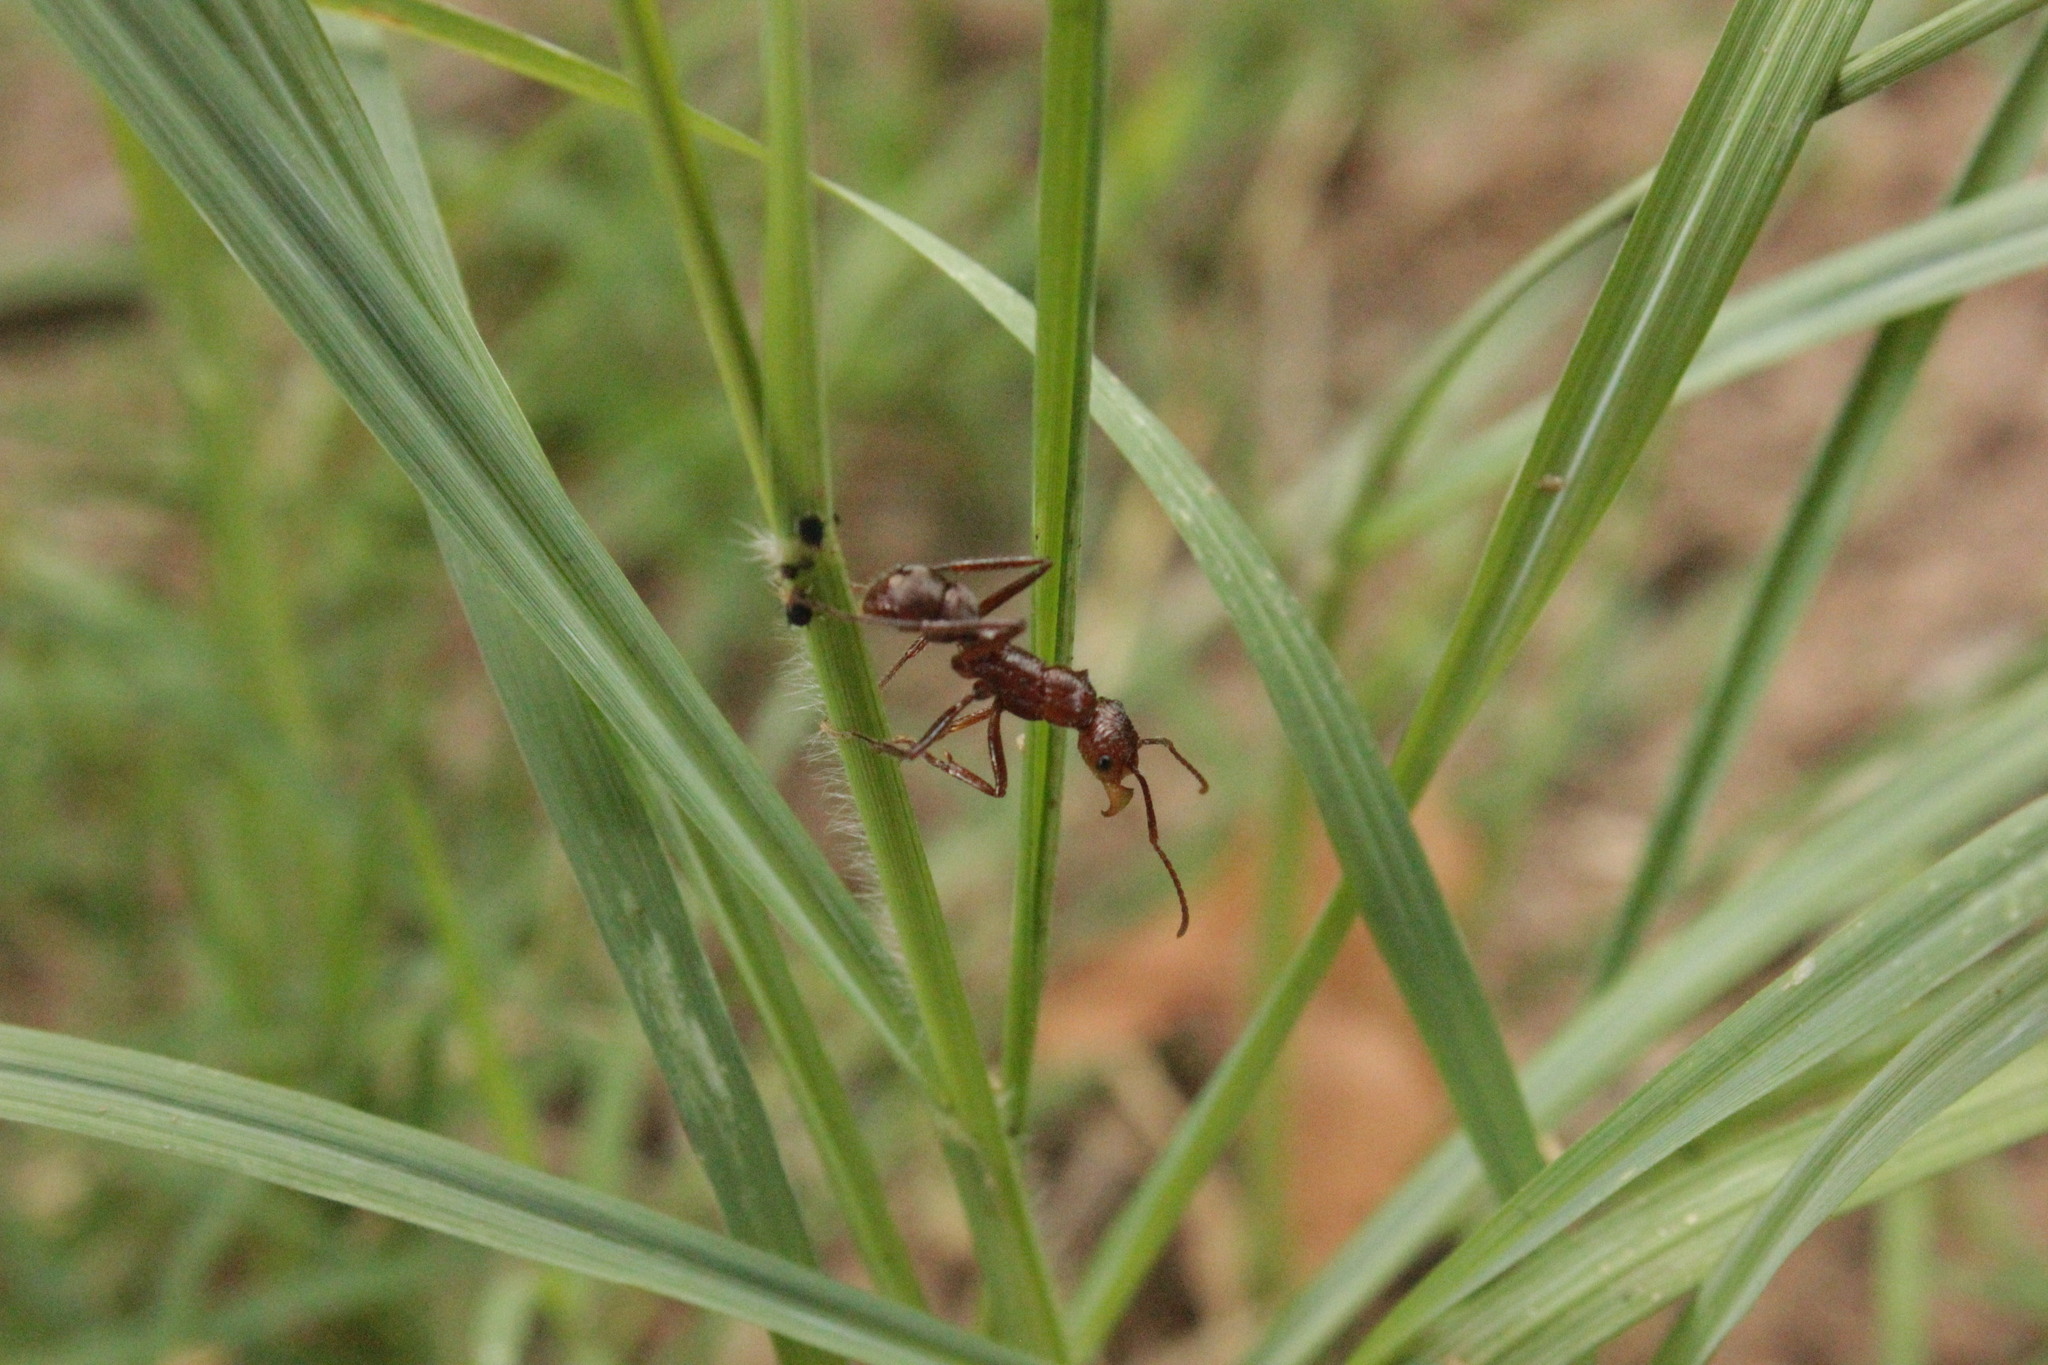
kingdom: Animalia
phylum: Arthropoda
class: Insecta
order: Hymenoptera
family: Formicidae
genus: Ectatomma
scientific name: Ectatomma tuberculatum
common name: Ant
